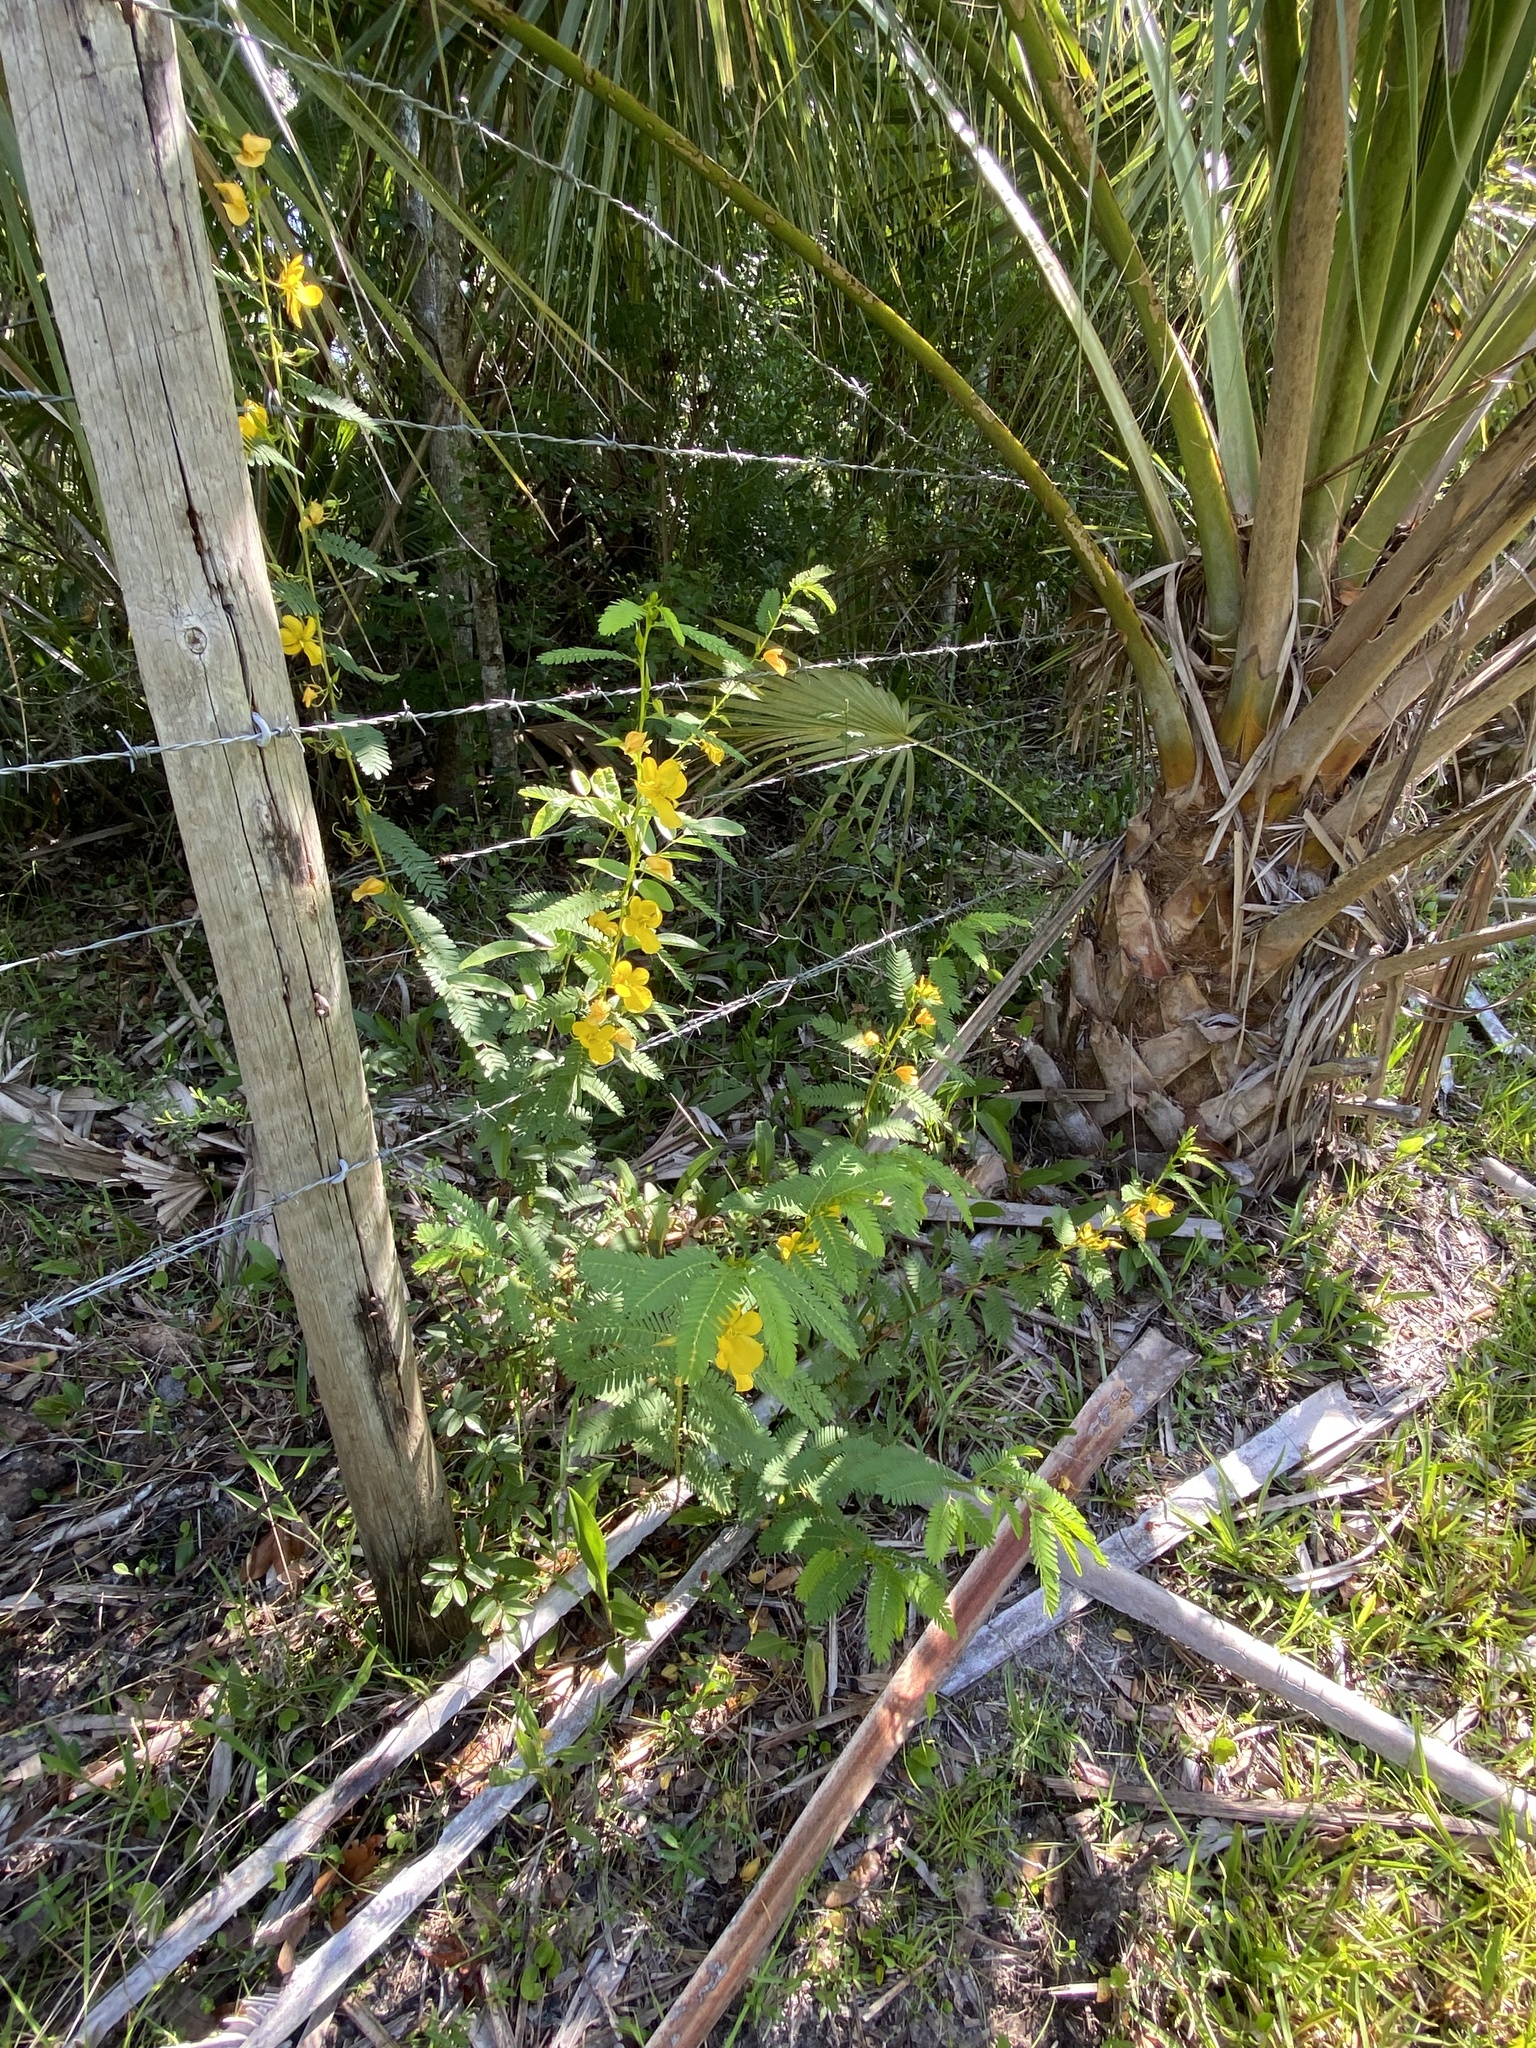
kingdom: Plantae
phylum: Tracheophyta
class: Magnoliopsida
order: Fabales
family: Fabaceae
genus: Chamaecrista
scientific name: Chamaecrista fasciculata
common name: Golden cassia
